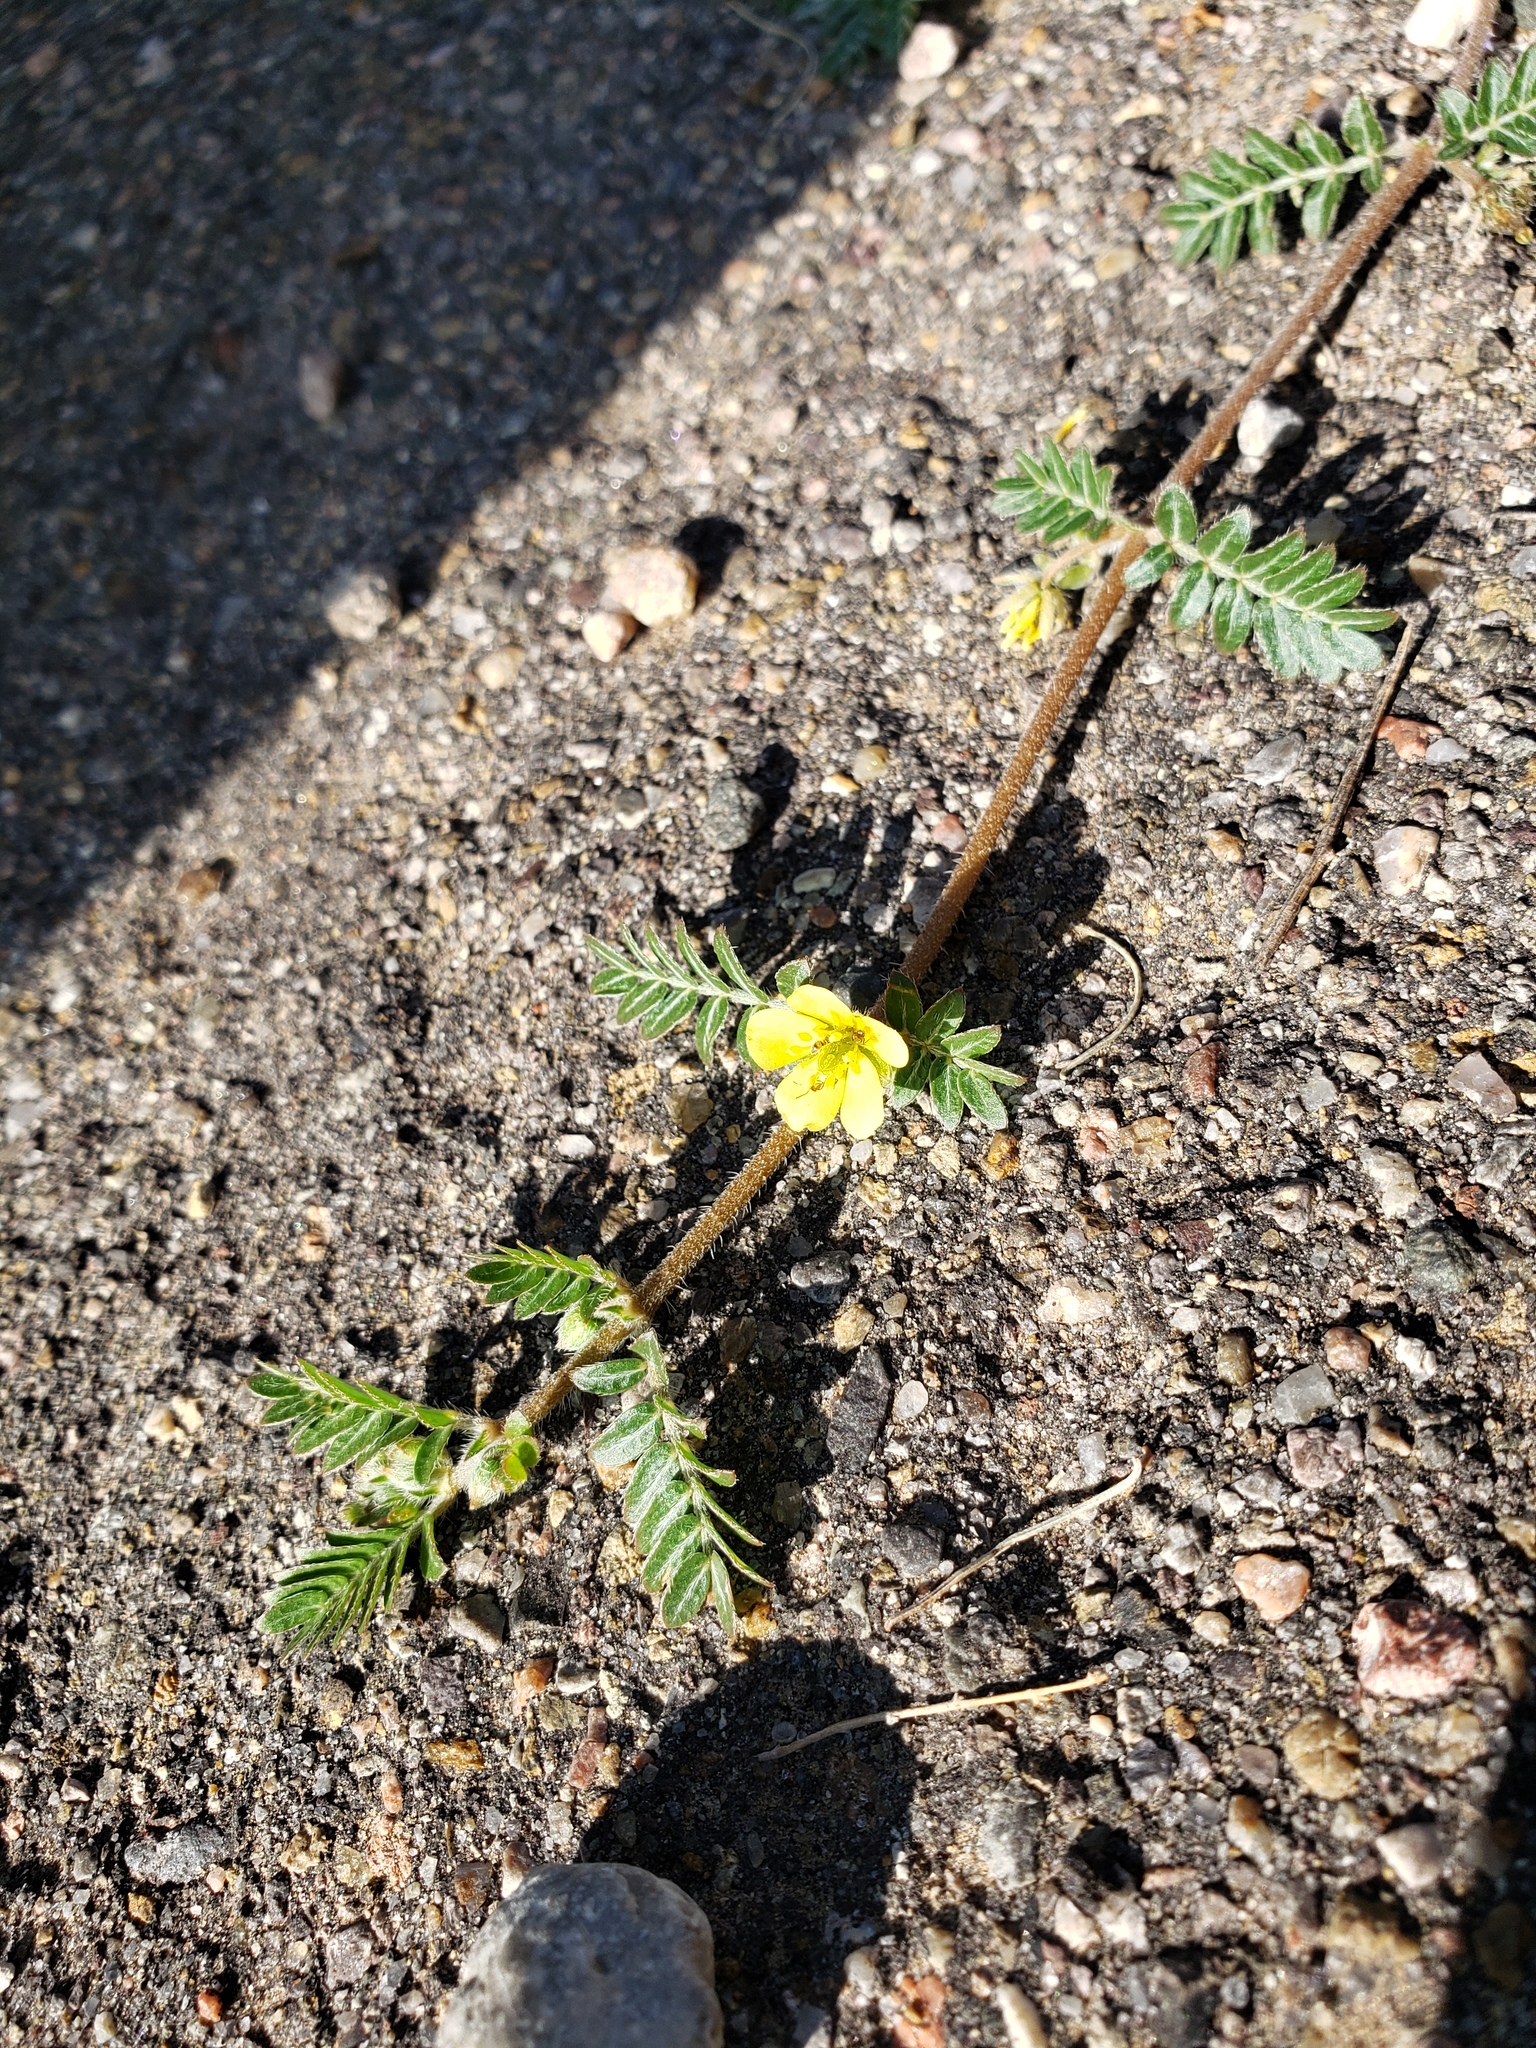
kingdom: Plantae
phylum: Tracheophyta
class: Magnoliopsida
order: Zygophyllales
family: Zygophyllaceae
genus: Tribulus
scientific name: Tribulus terrestris
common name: Puncturevine
